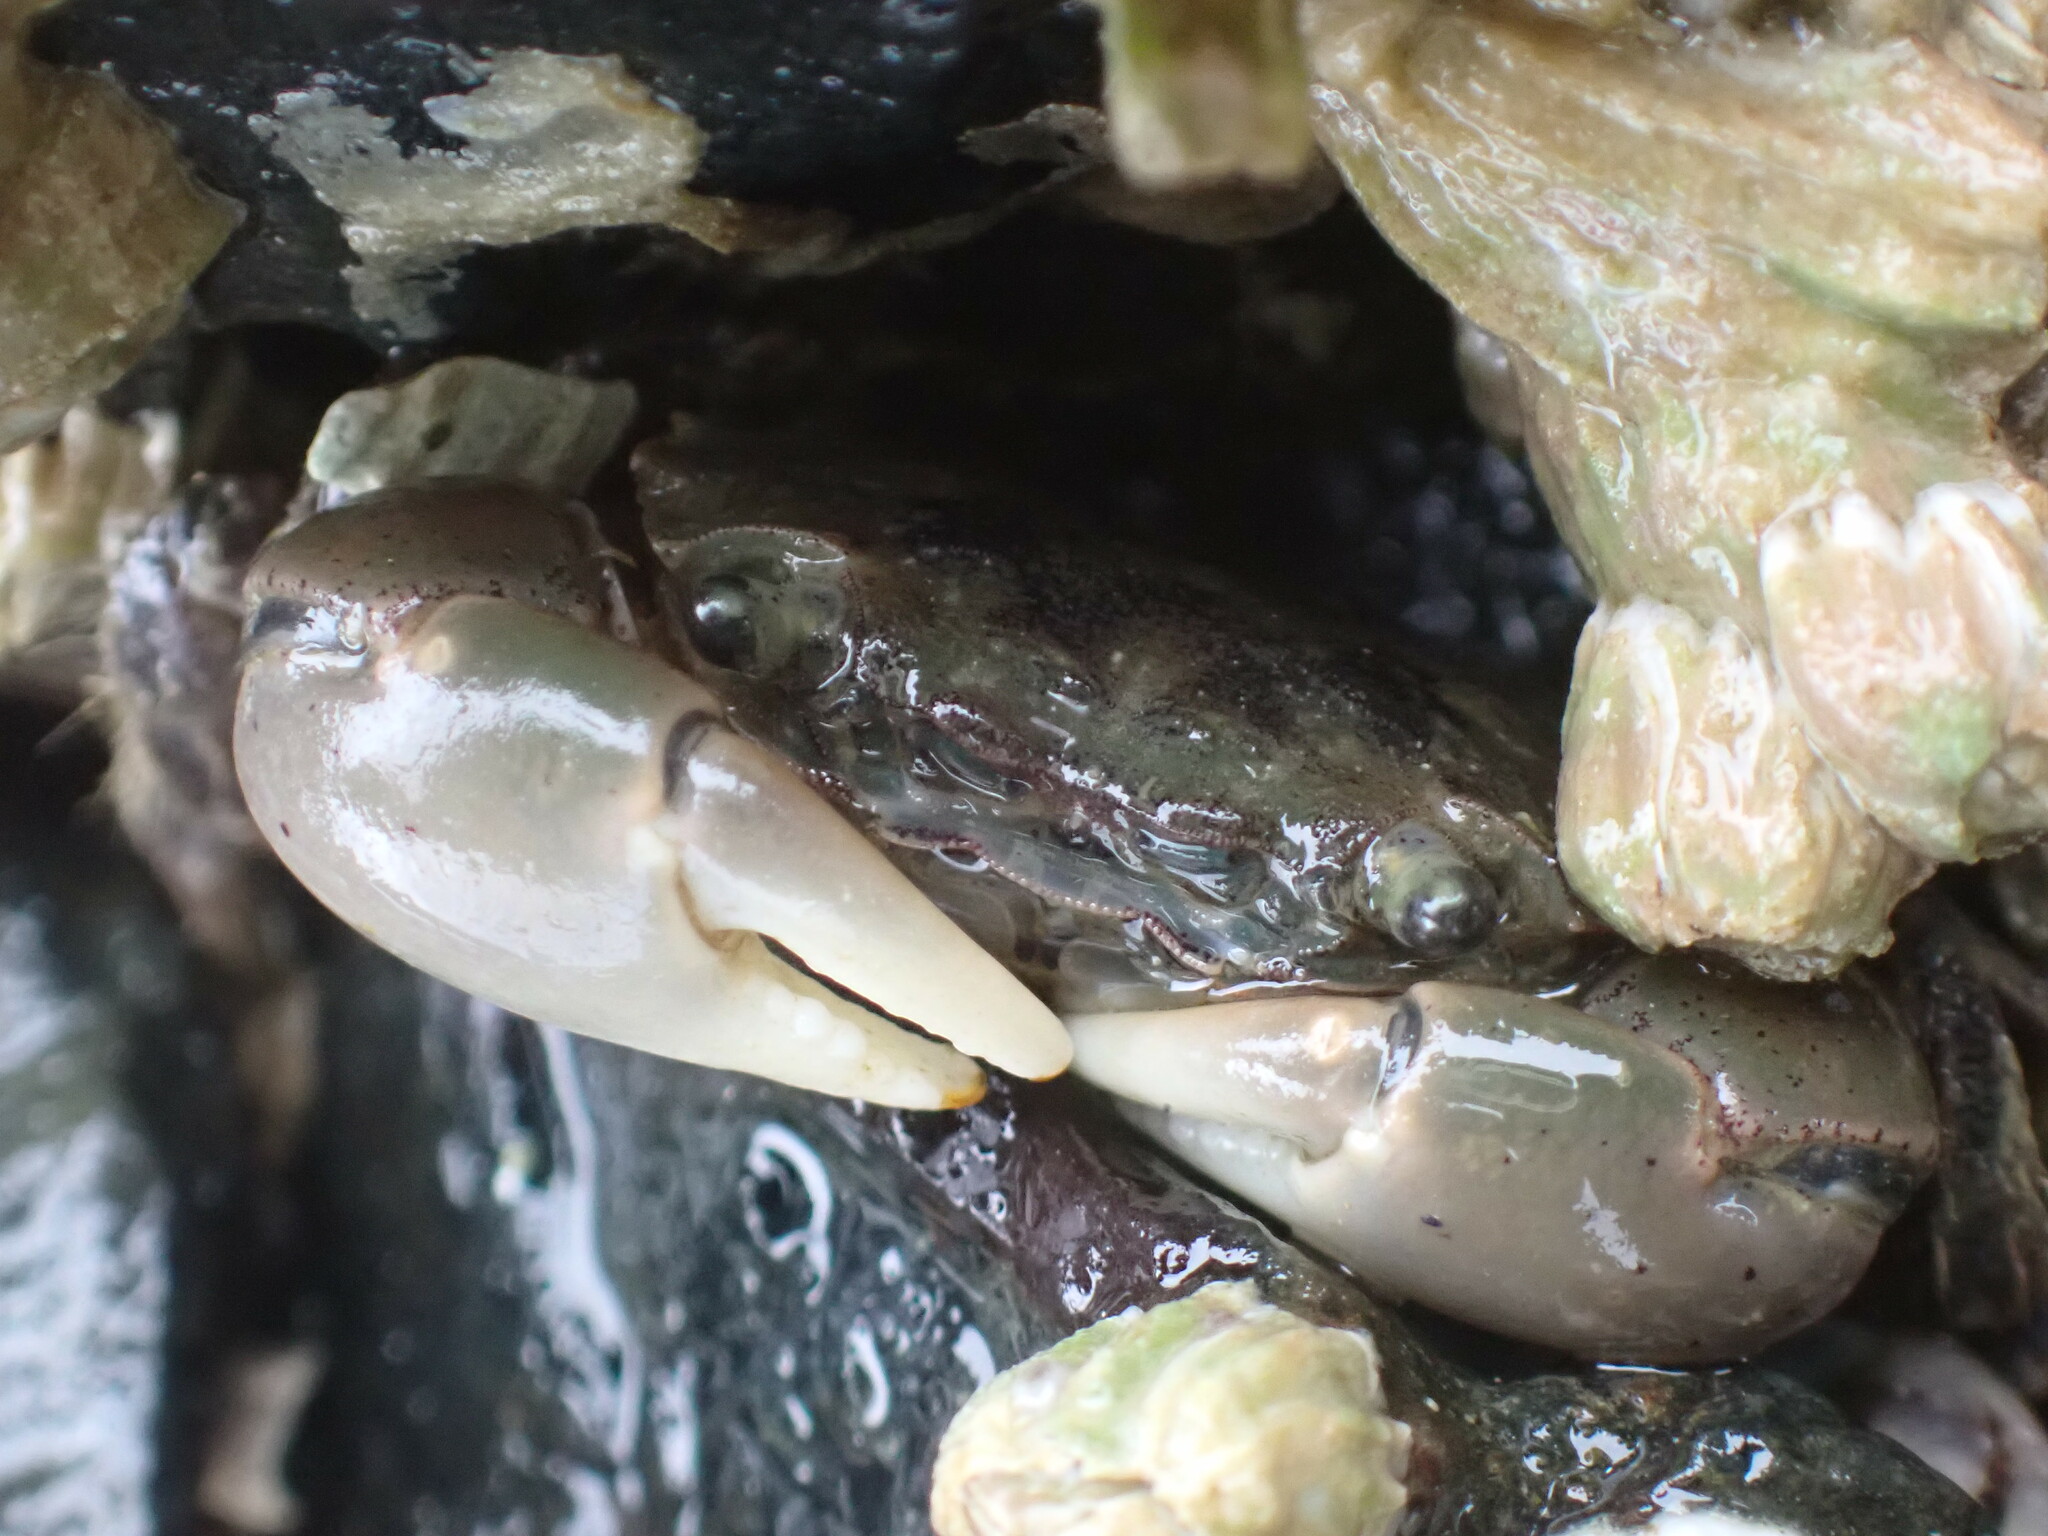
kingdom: Animalia
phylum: Arthropoda
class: Malacostraca
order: Decapoda
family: Varunidae
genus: Hemigrapsus
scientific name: Hemigrapsus oregonensis
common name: Yellow shore crab
